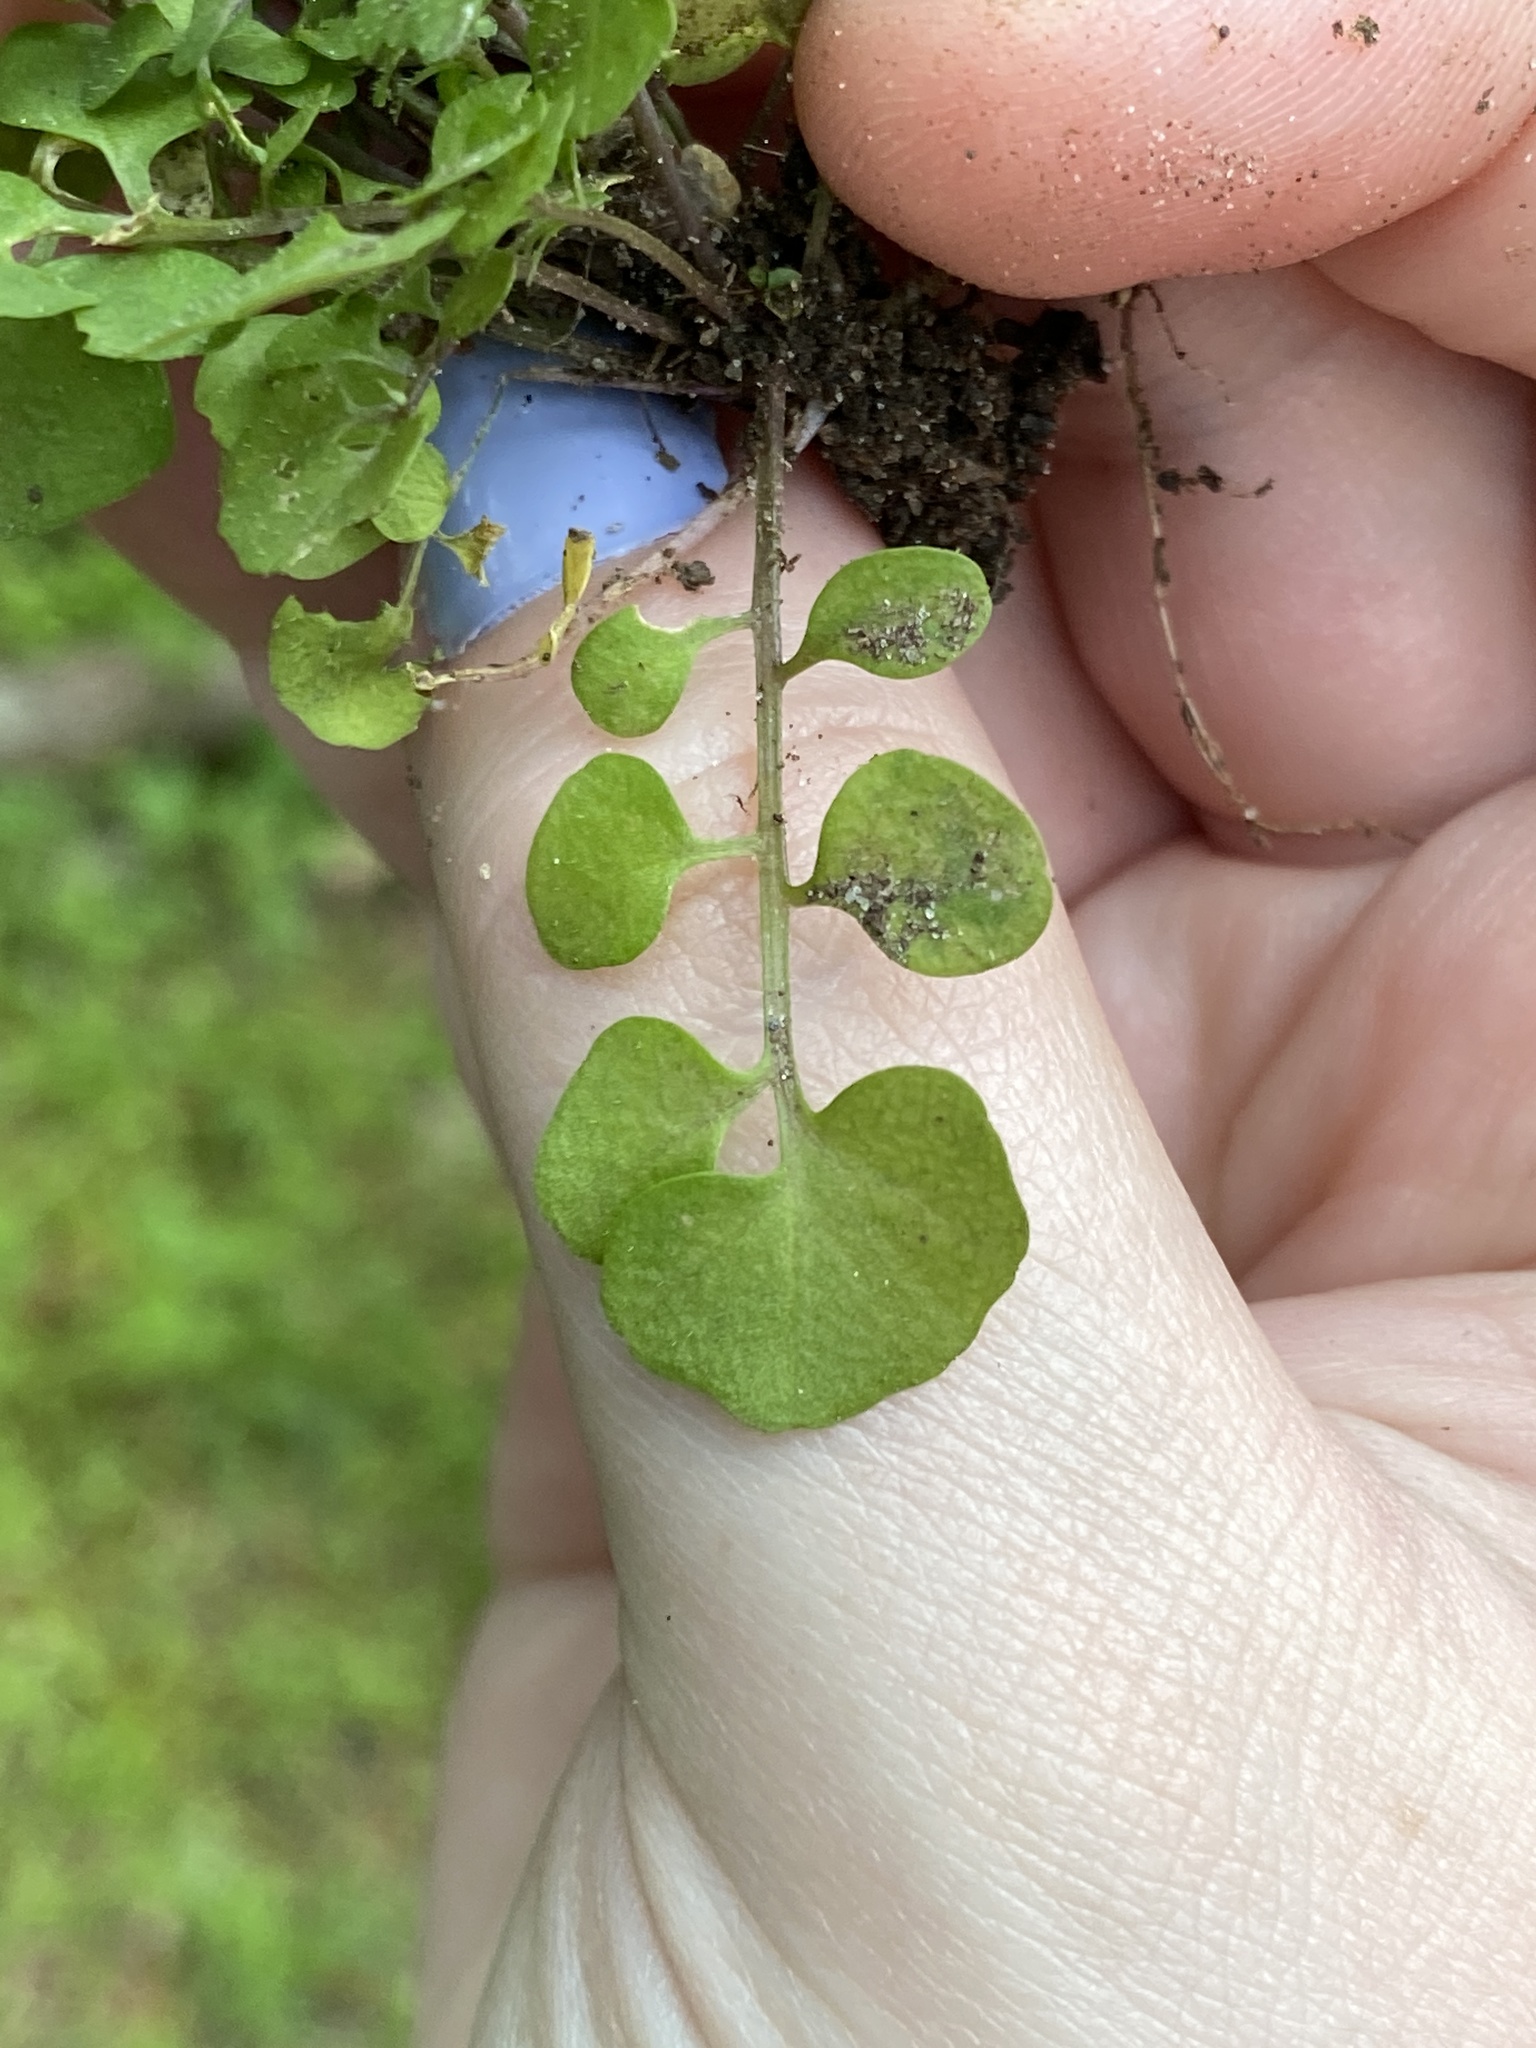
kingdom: Plantae
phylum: Tracheophyta
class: Magnoliopsida
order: Brassicales
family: Brassicaceae
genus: Cardamine
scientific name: Cardamine hirsuta
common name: Hairy bittercress
